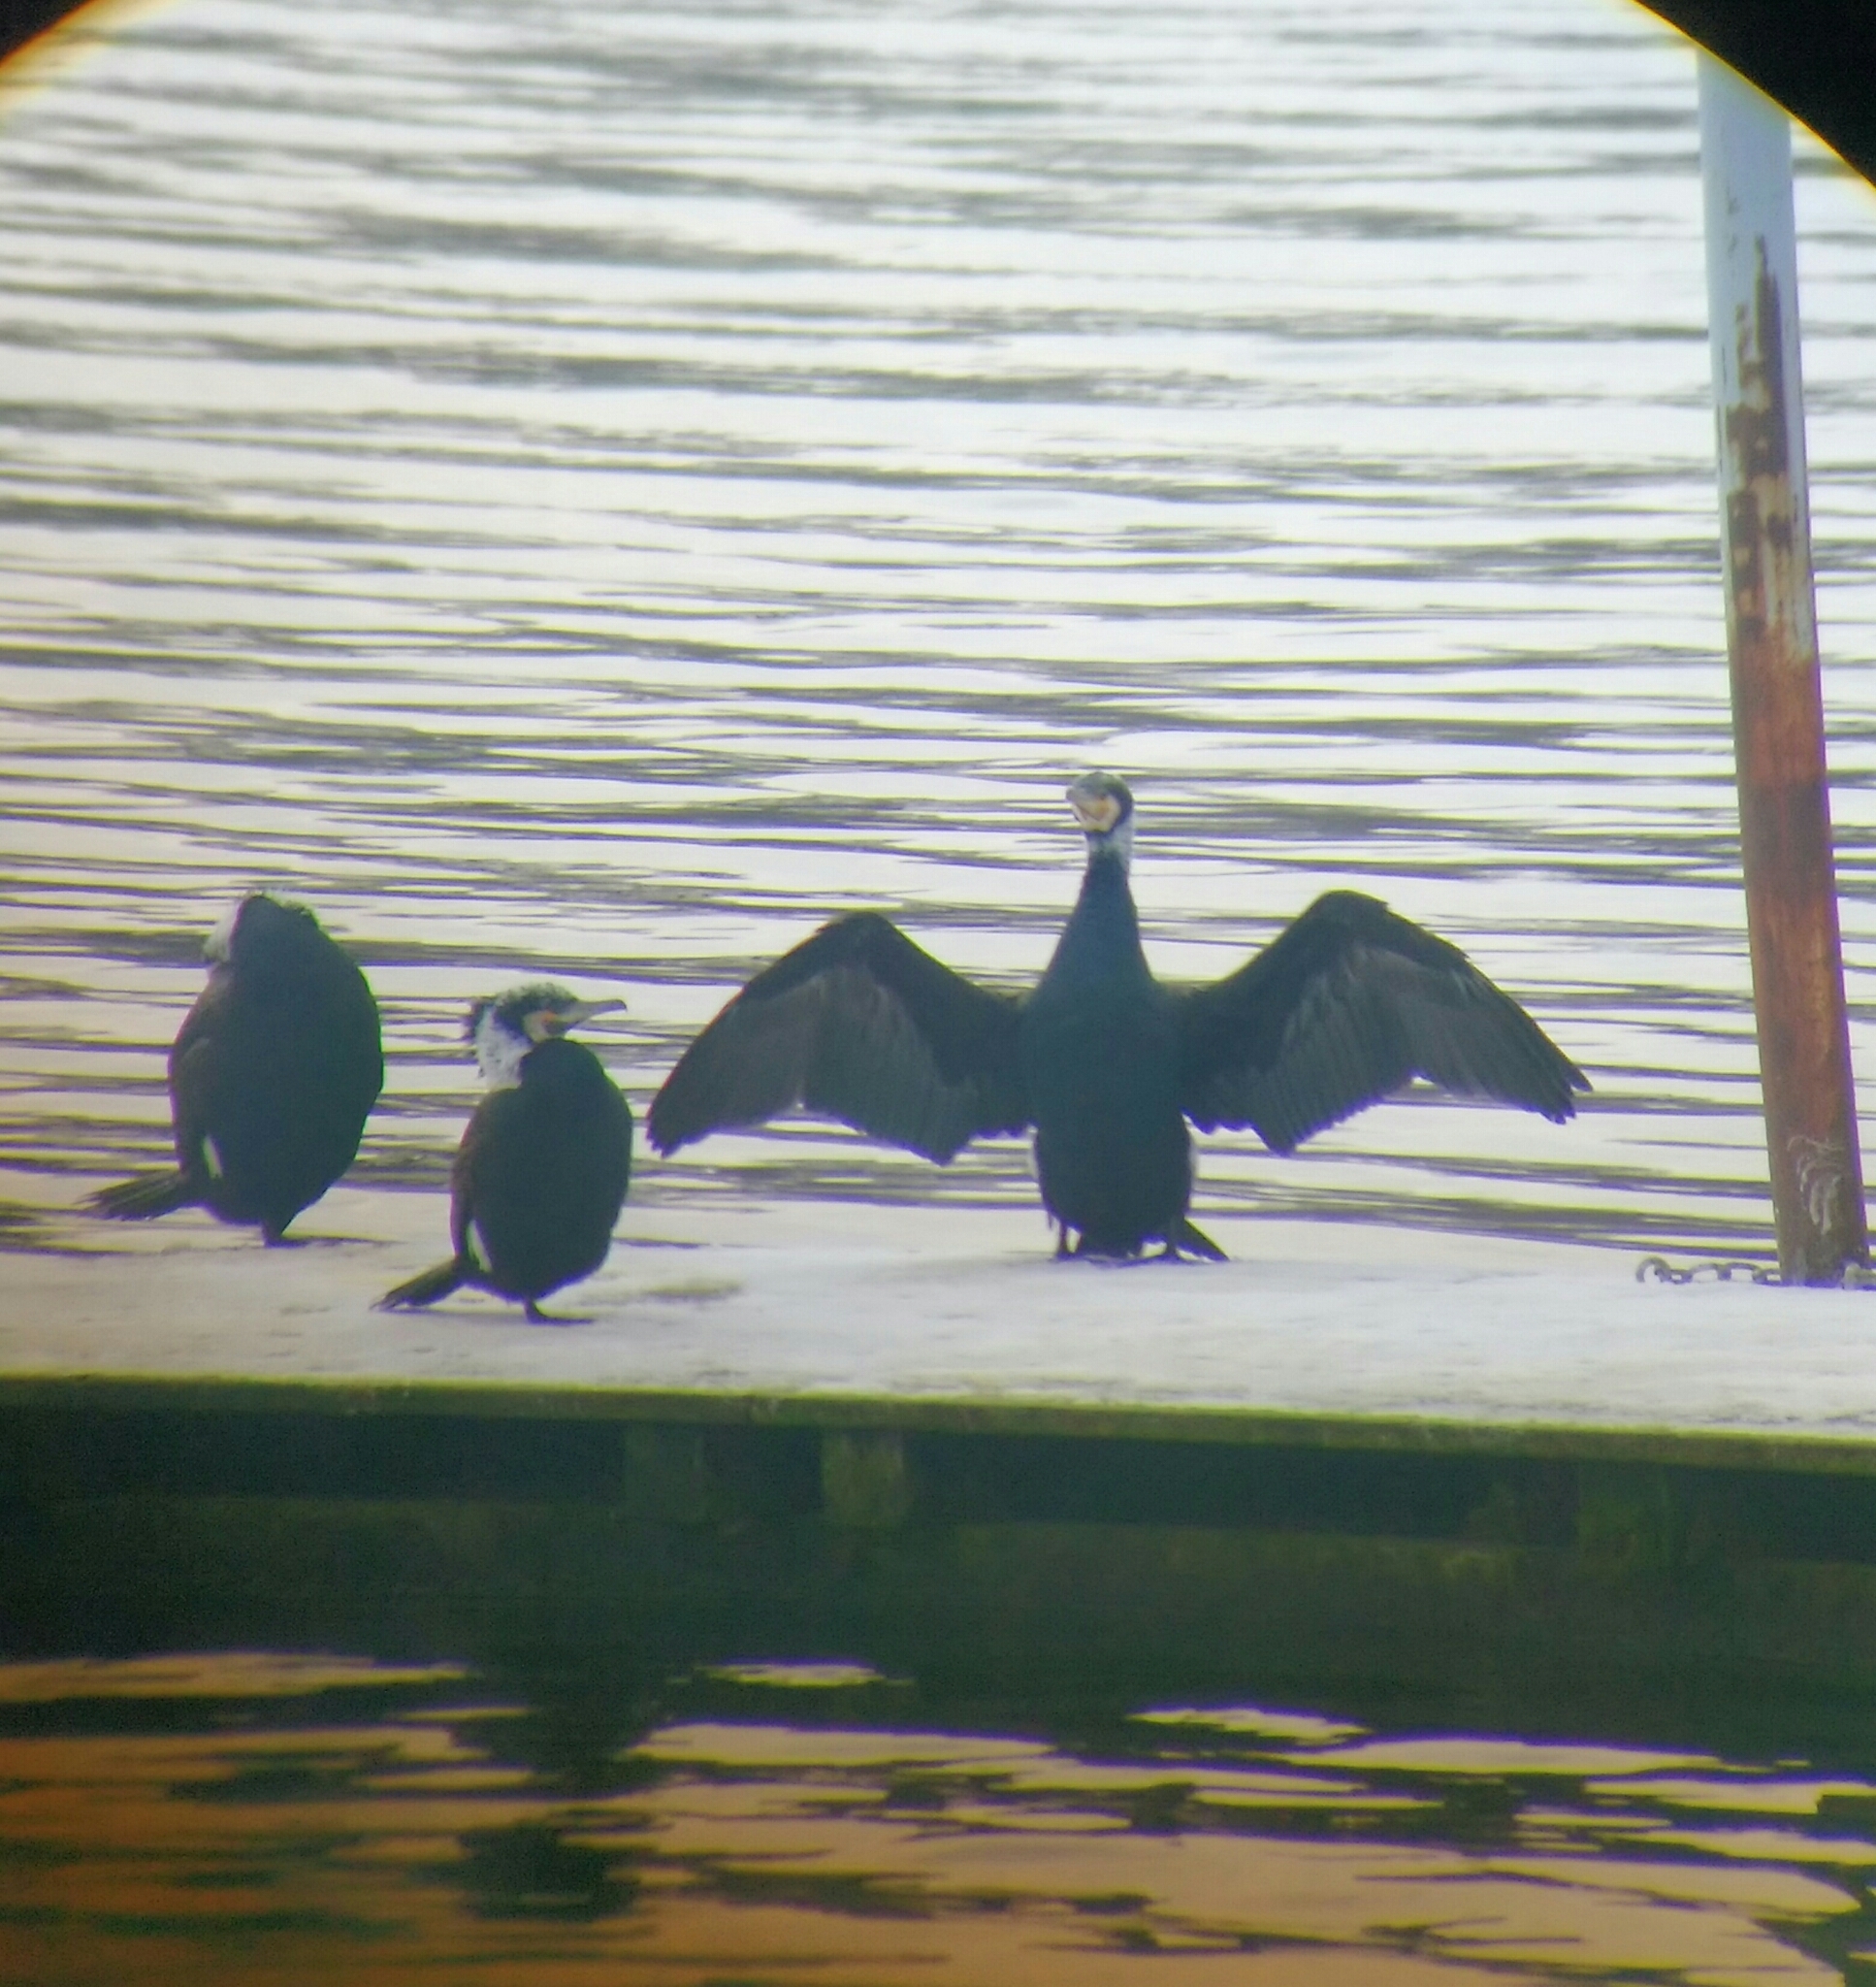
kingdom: Animalia
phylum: Chordata
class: Aves
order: Suliformes
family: Phalacrocoracidae
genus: Phalacrocorax
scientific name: Phalacrocorax carbo
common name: Great cormorant
